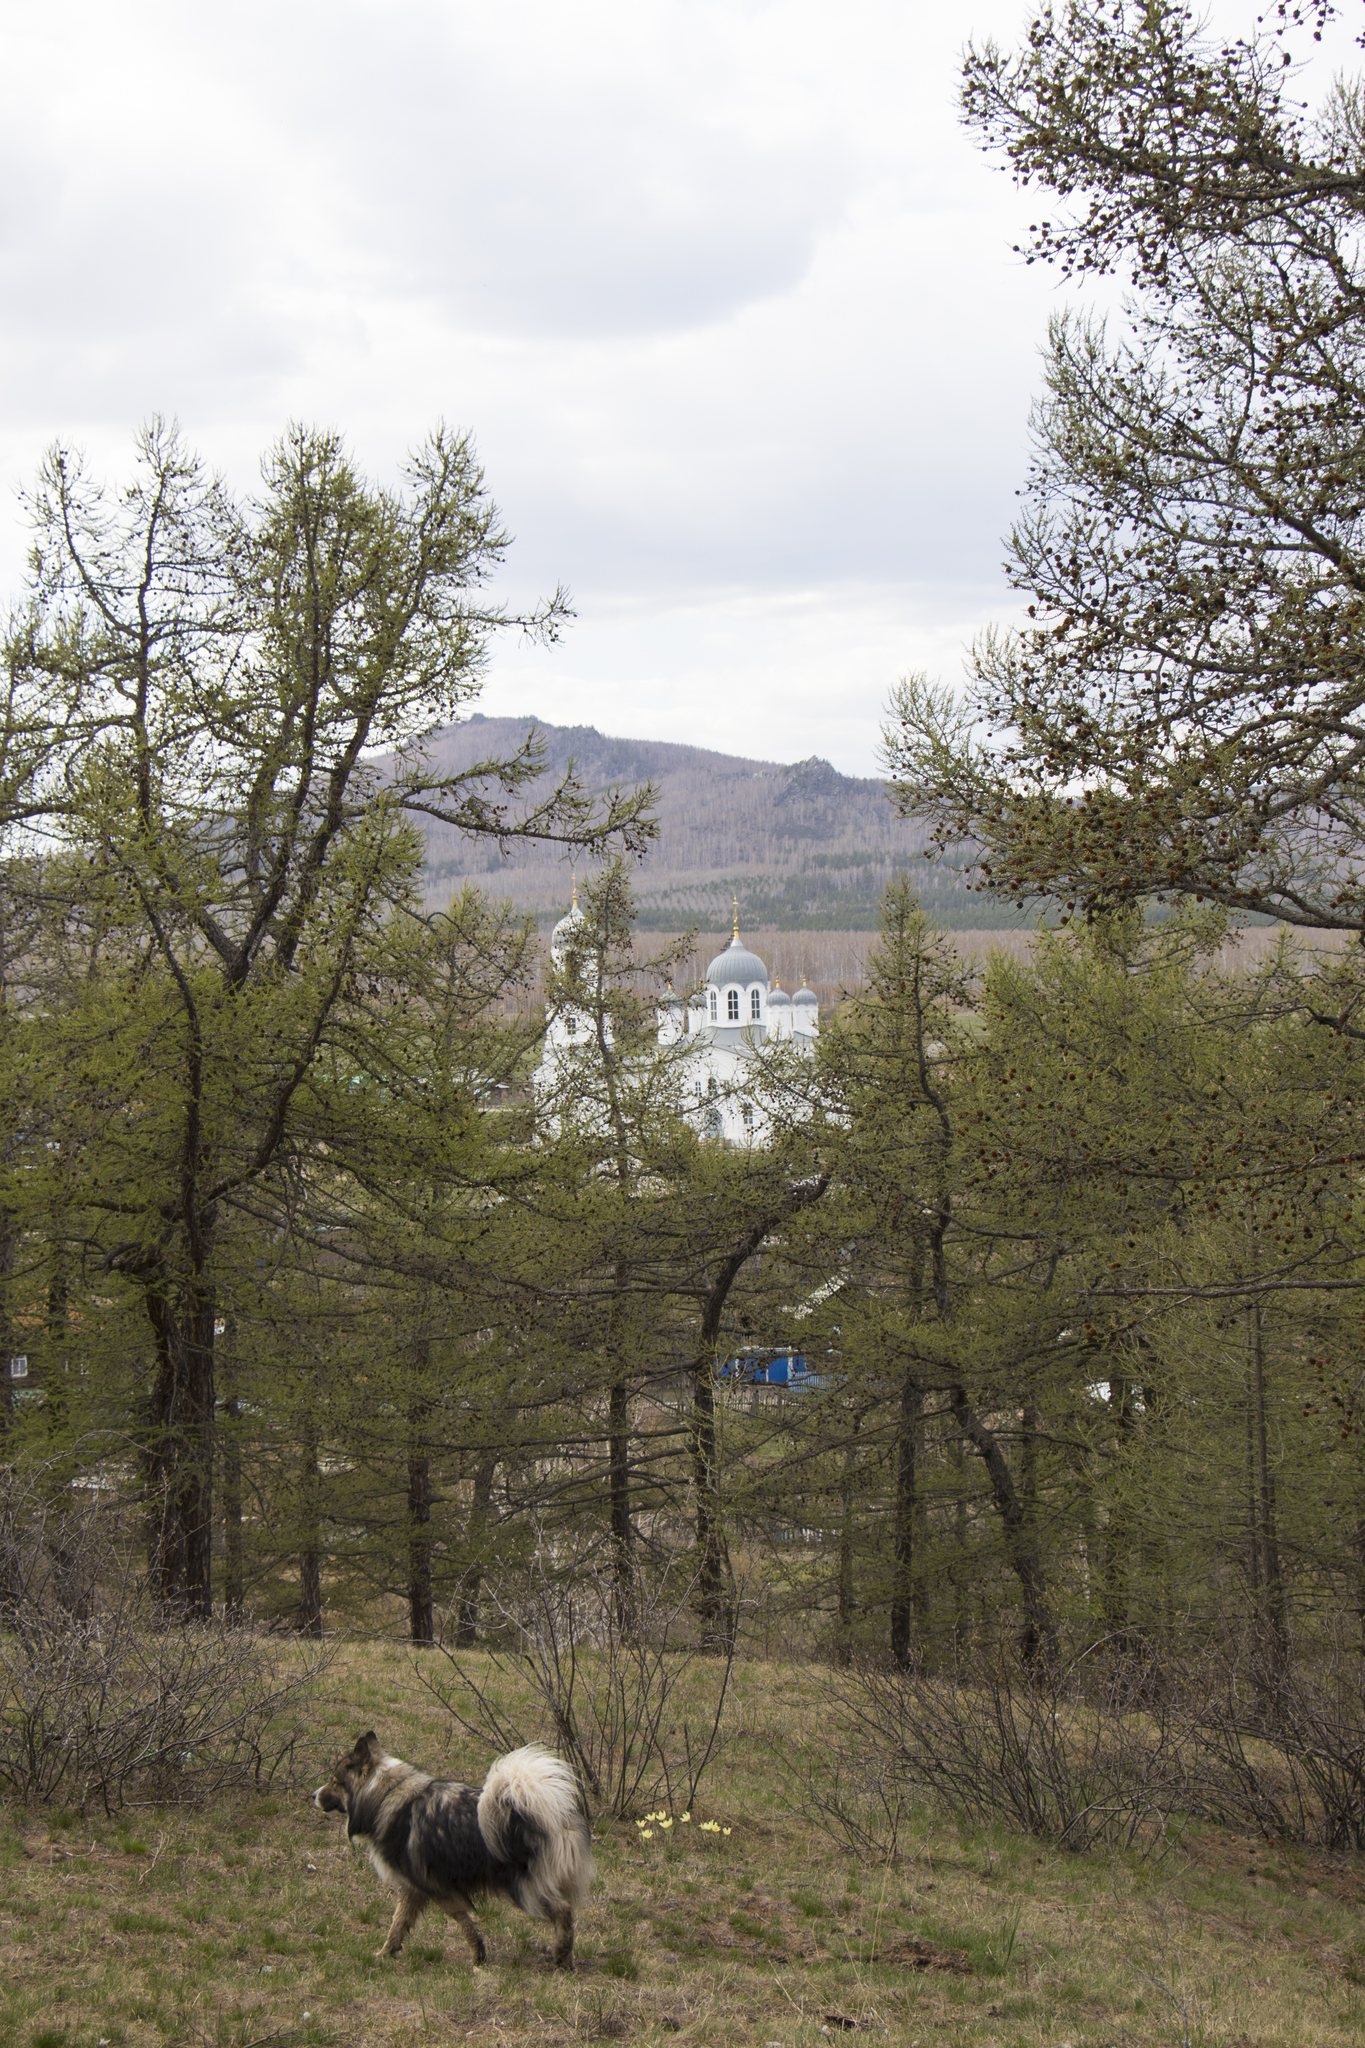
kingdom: Plantae
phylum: Tracheophyta
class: Pinopsida
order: Pinales
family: Pinaceae
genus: Larix
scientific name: Larix sibirica
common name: Siberian larch
